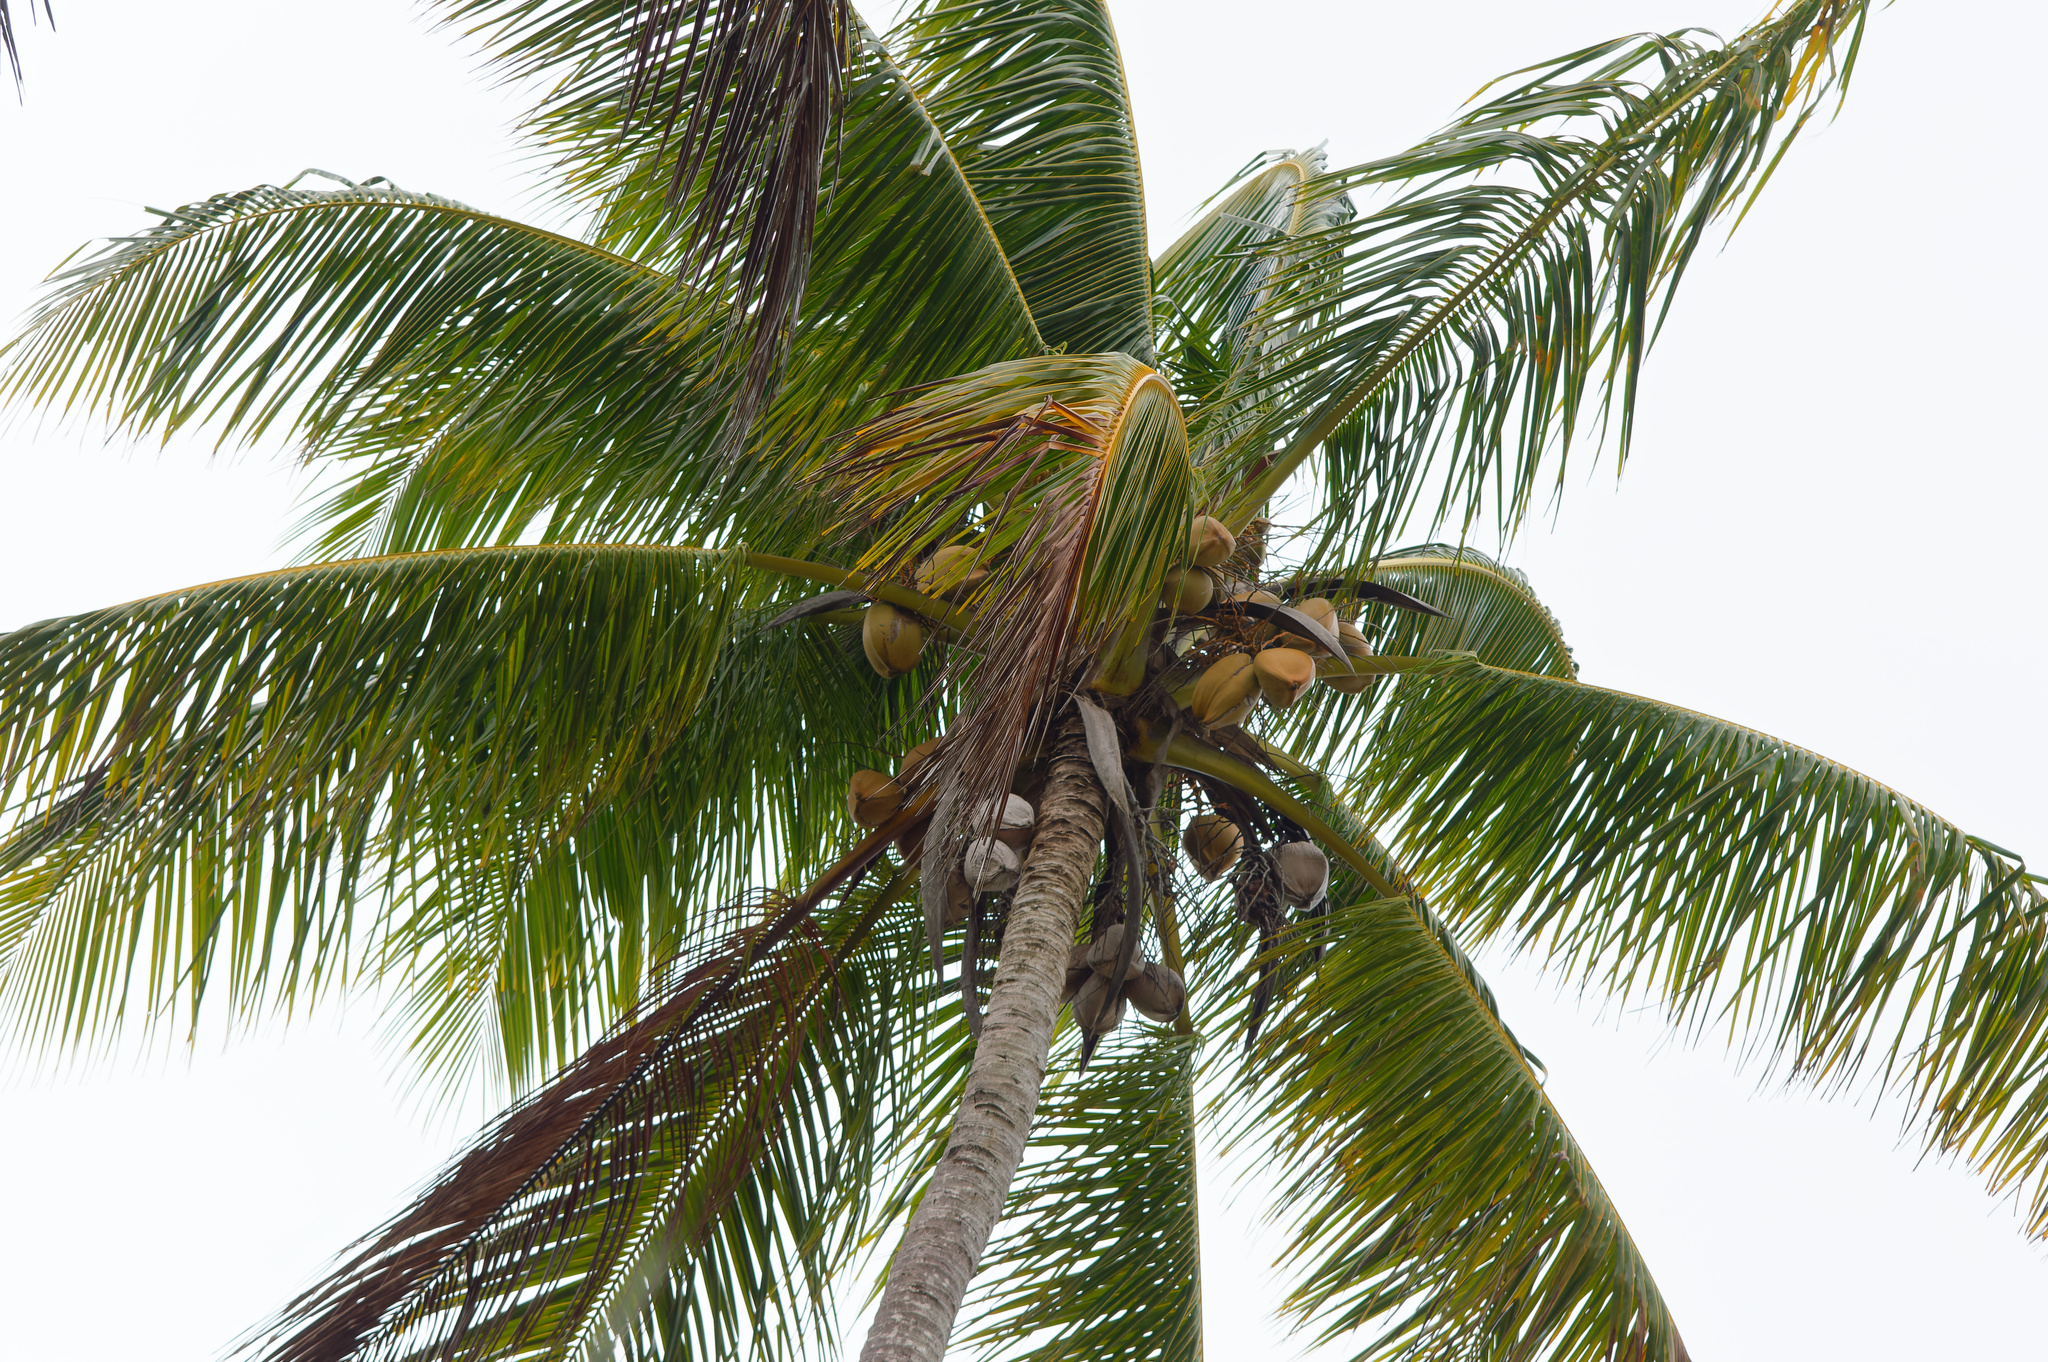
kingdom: Plantae
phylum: Tracheophyta
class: Liliopsida
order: Arecales
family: Arecaceae
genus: Cocos
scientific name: Cocos nucifera
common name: Coconut palm
